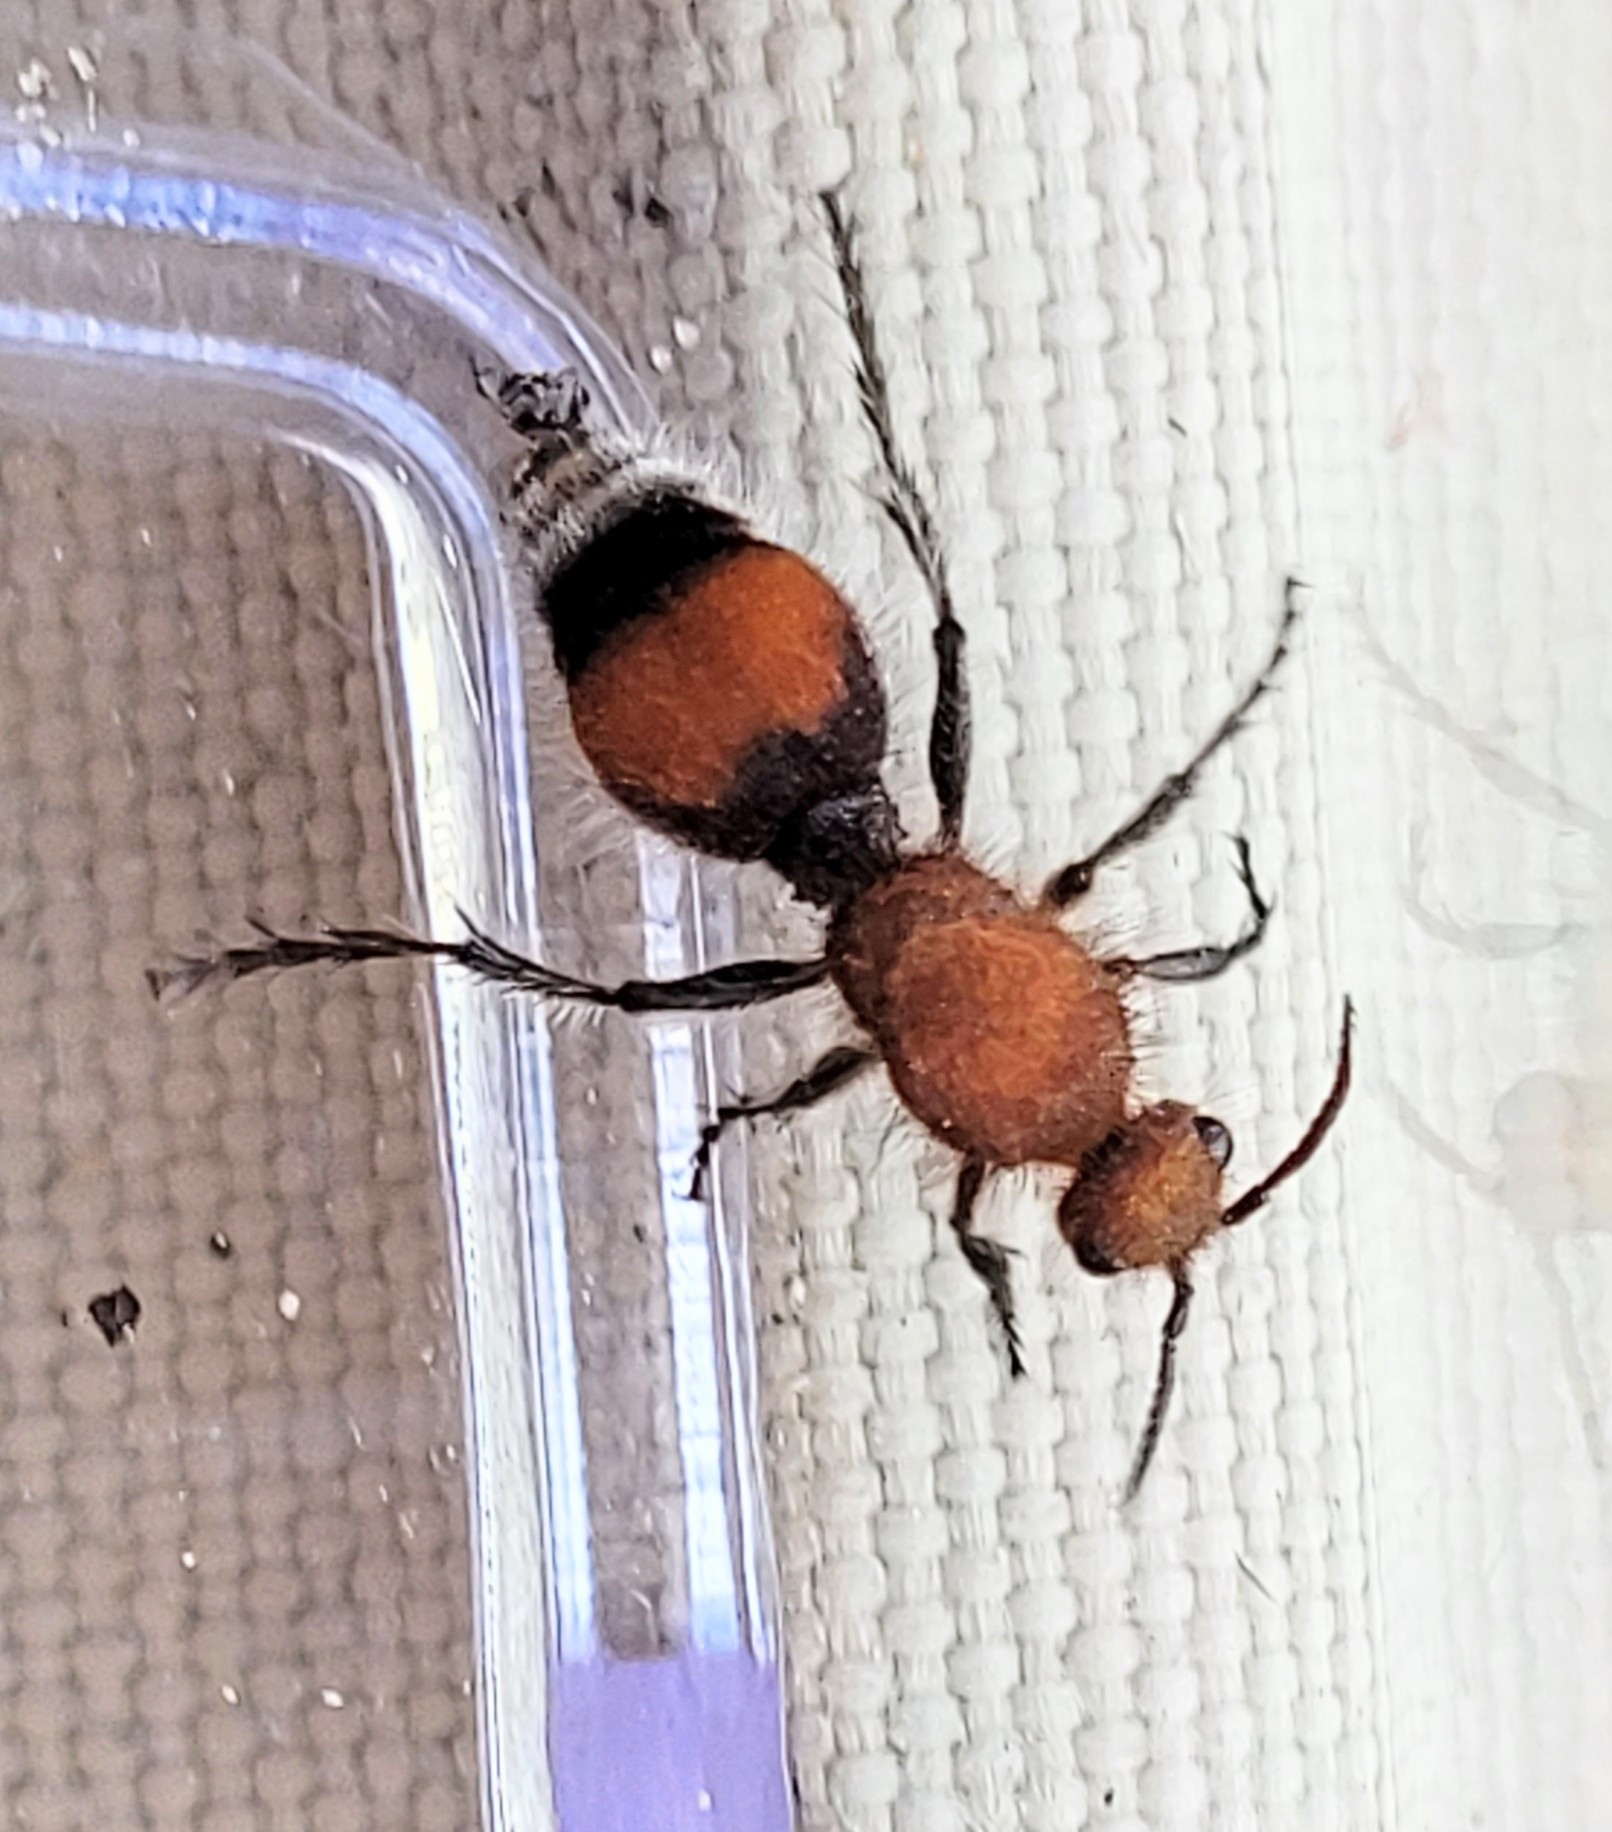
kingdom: Animalia
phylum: Arthropoda
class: Insecta
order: Hymenoptera
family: Mutillidae
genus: Dasymutilla
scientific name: Dasymutilla
